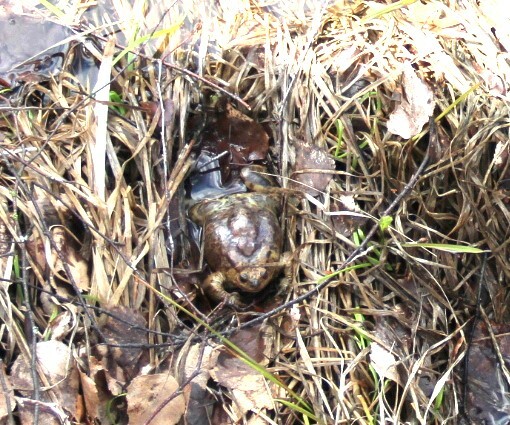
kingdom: Animalia
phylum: Chordata
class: Amphibia
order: Anura
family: Bufonidae
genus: Bufo
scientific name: Bufo bufo
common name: Common toad
